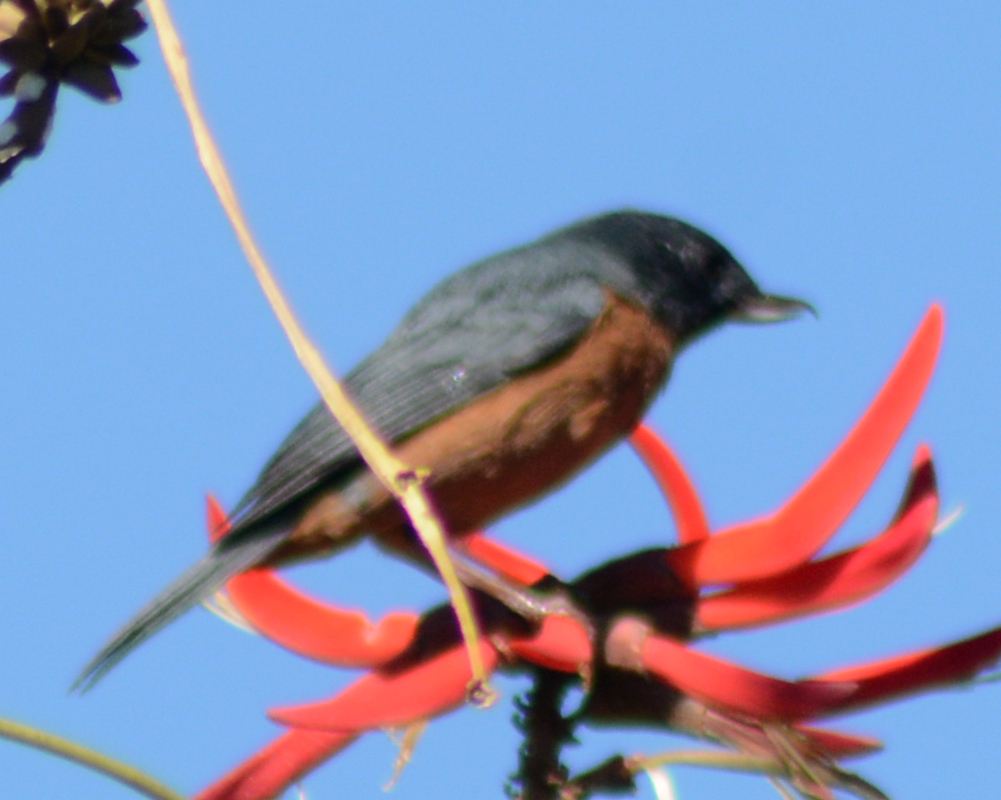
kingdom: Animalia
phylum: Chordata
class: Aves
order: Passeriformes
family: Thraupidae
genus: Diglossa
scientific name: Diglossa baritula
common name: Cinnamon-bellied flowerpiercer
